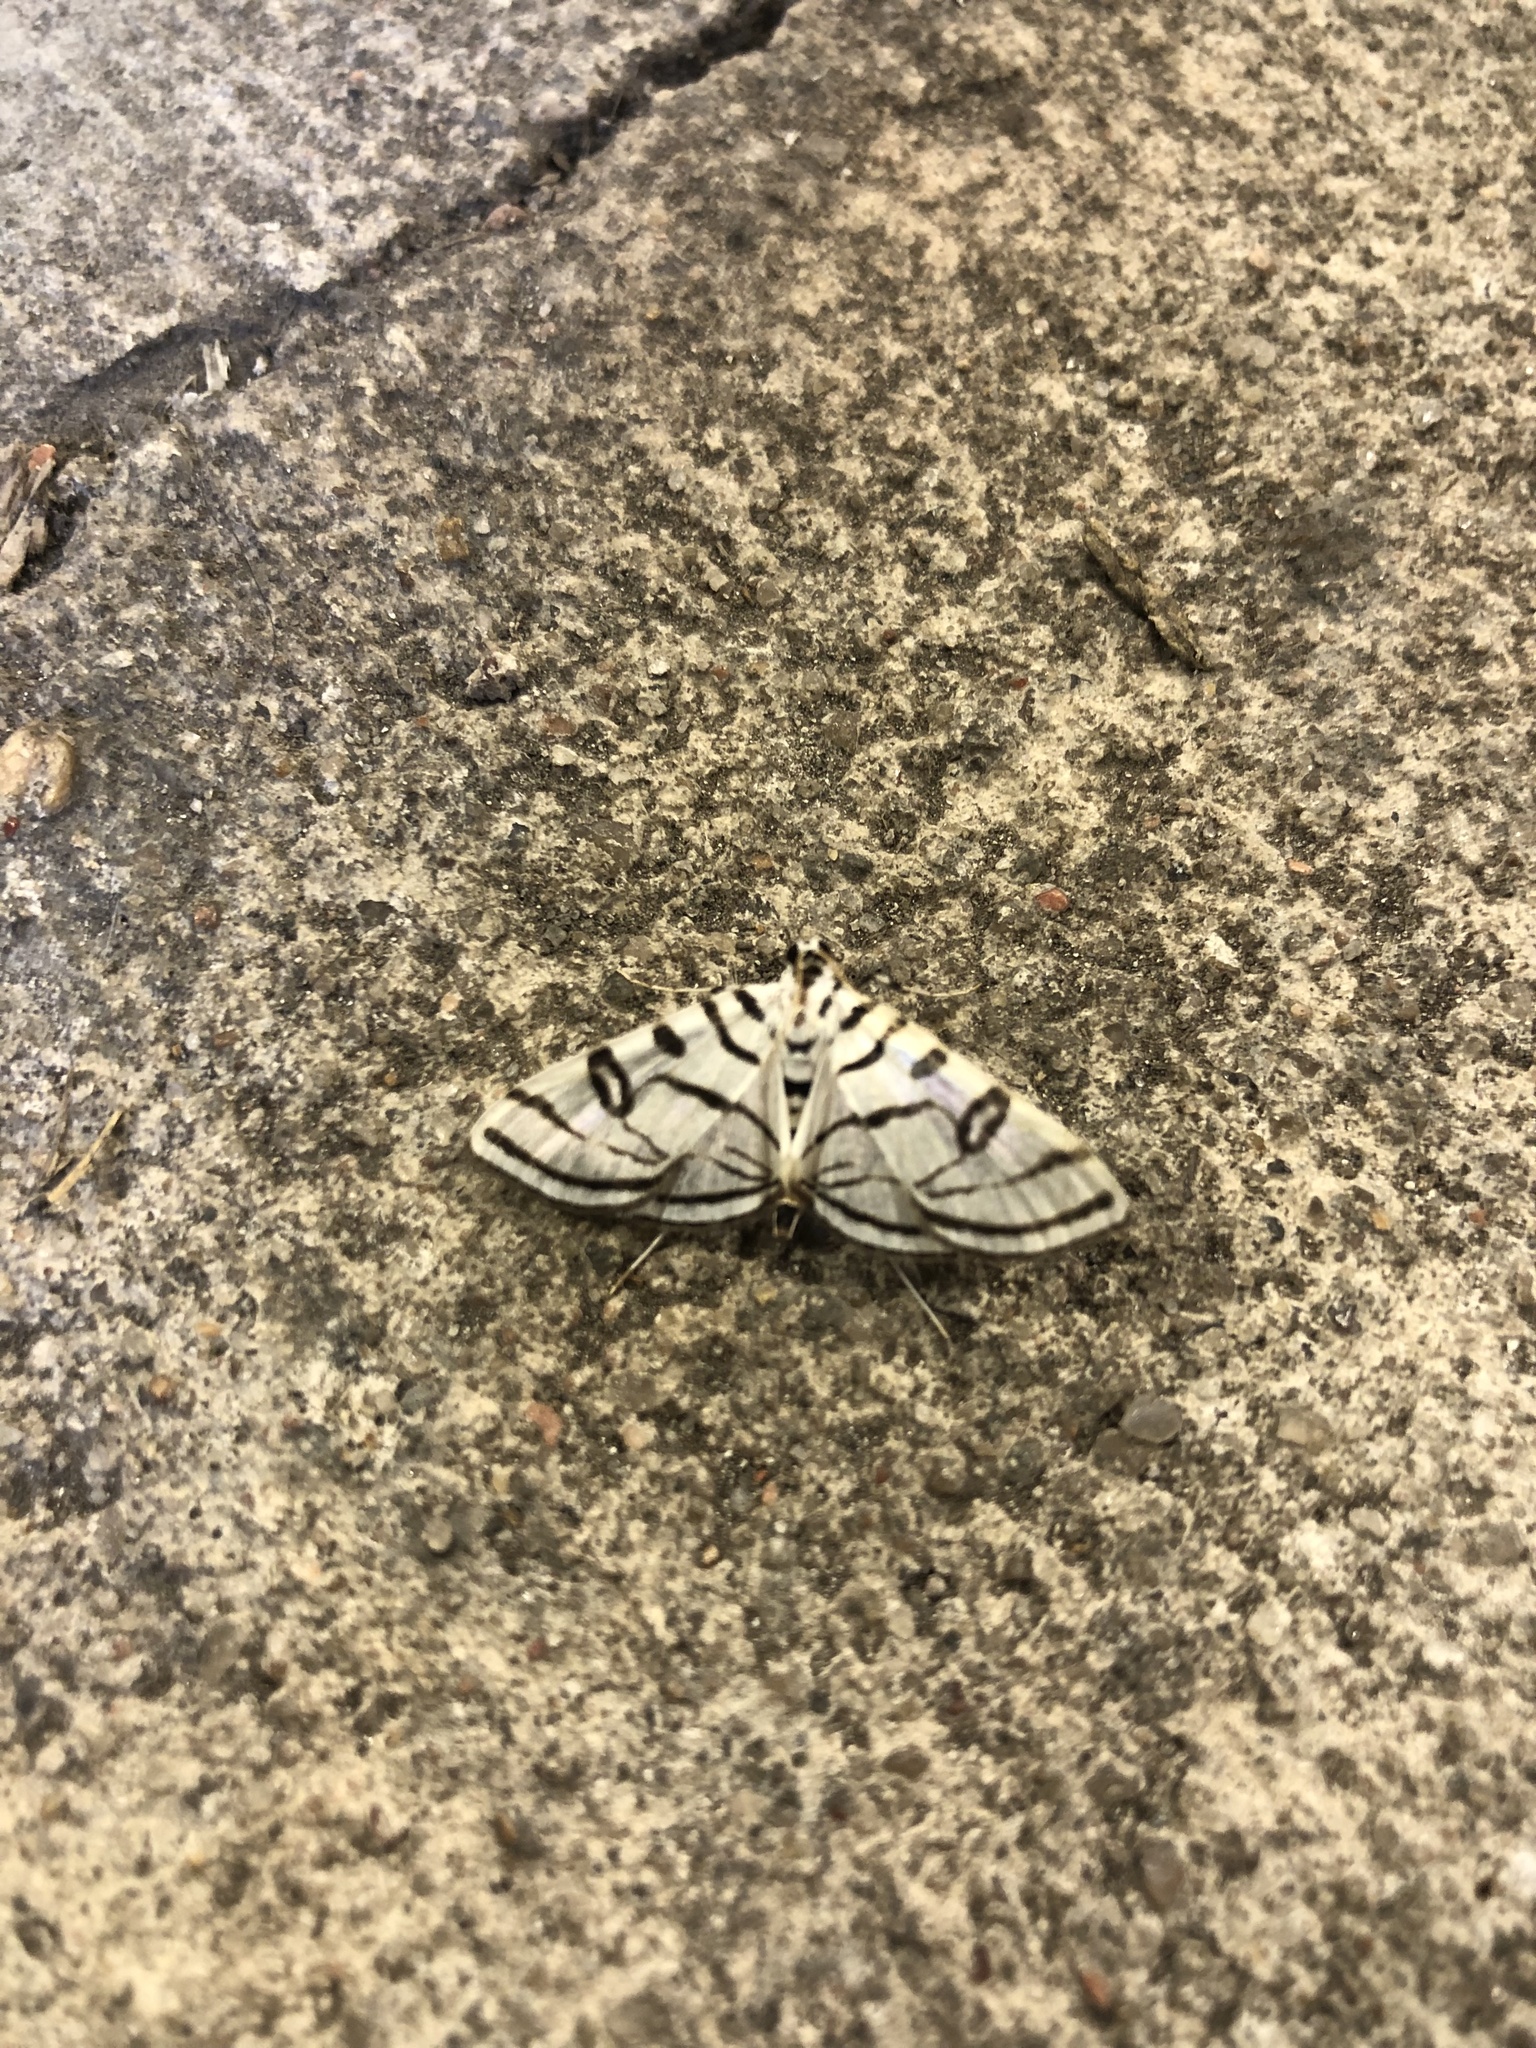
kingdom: Animalia
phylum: Arthropoda
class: Insecta
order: Lepidoptera
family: Crambidae
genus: Conchylodes
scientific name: Conchylodes ovulalis
